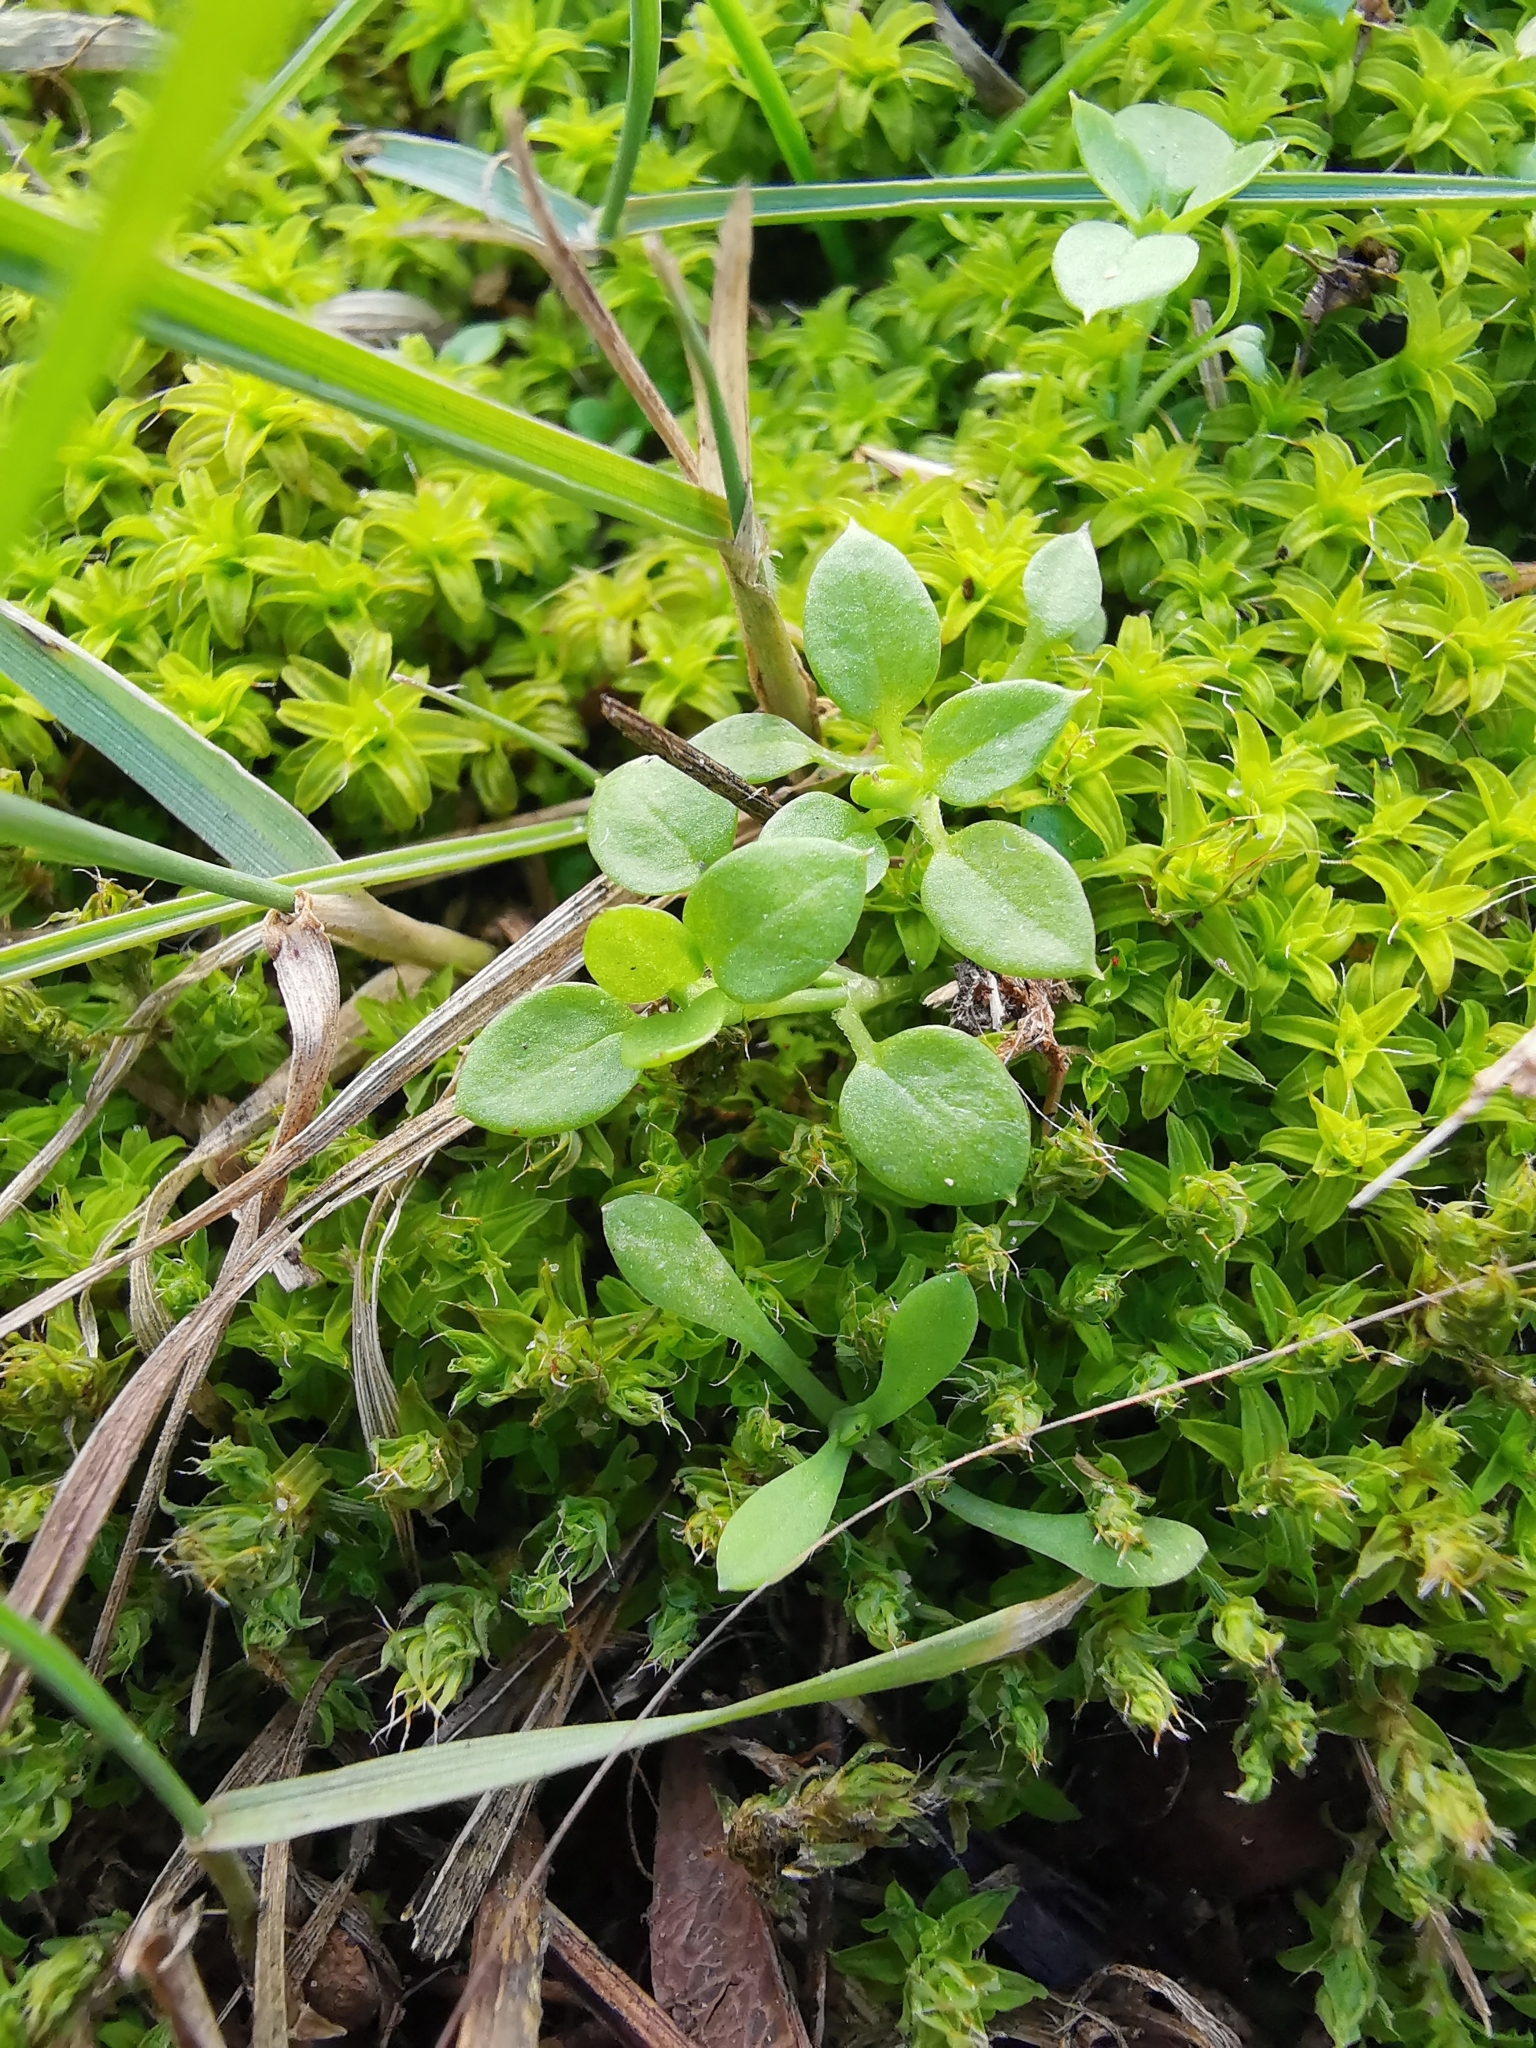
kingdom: Plantae
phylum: Tracheophyta
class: Magnoliopsida
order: Caryophyllales
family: Caryophyllaceae
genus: Stellaria
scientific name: Stellaria media
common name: Common chickweed
